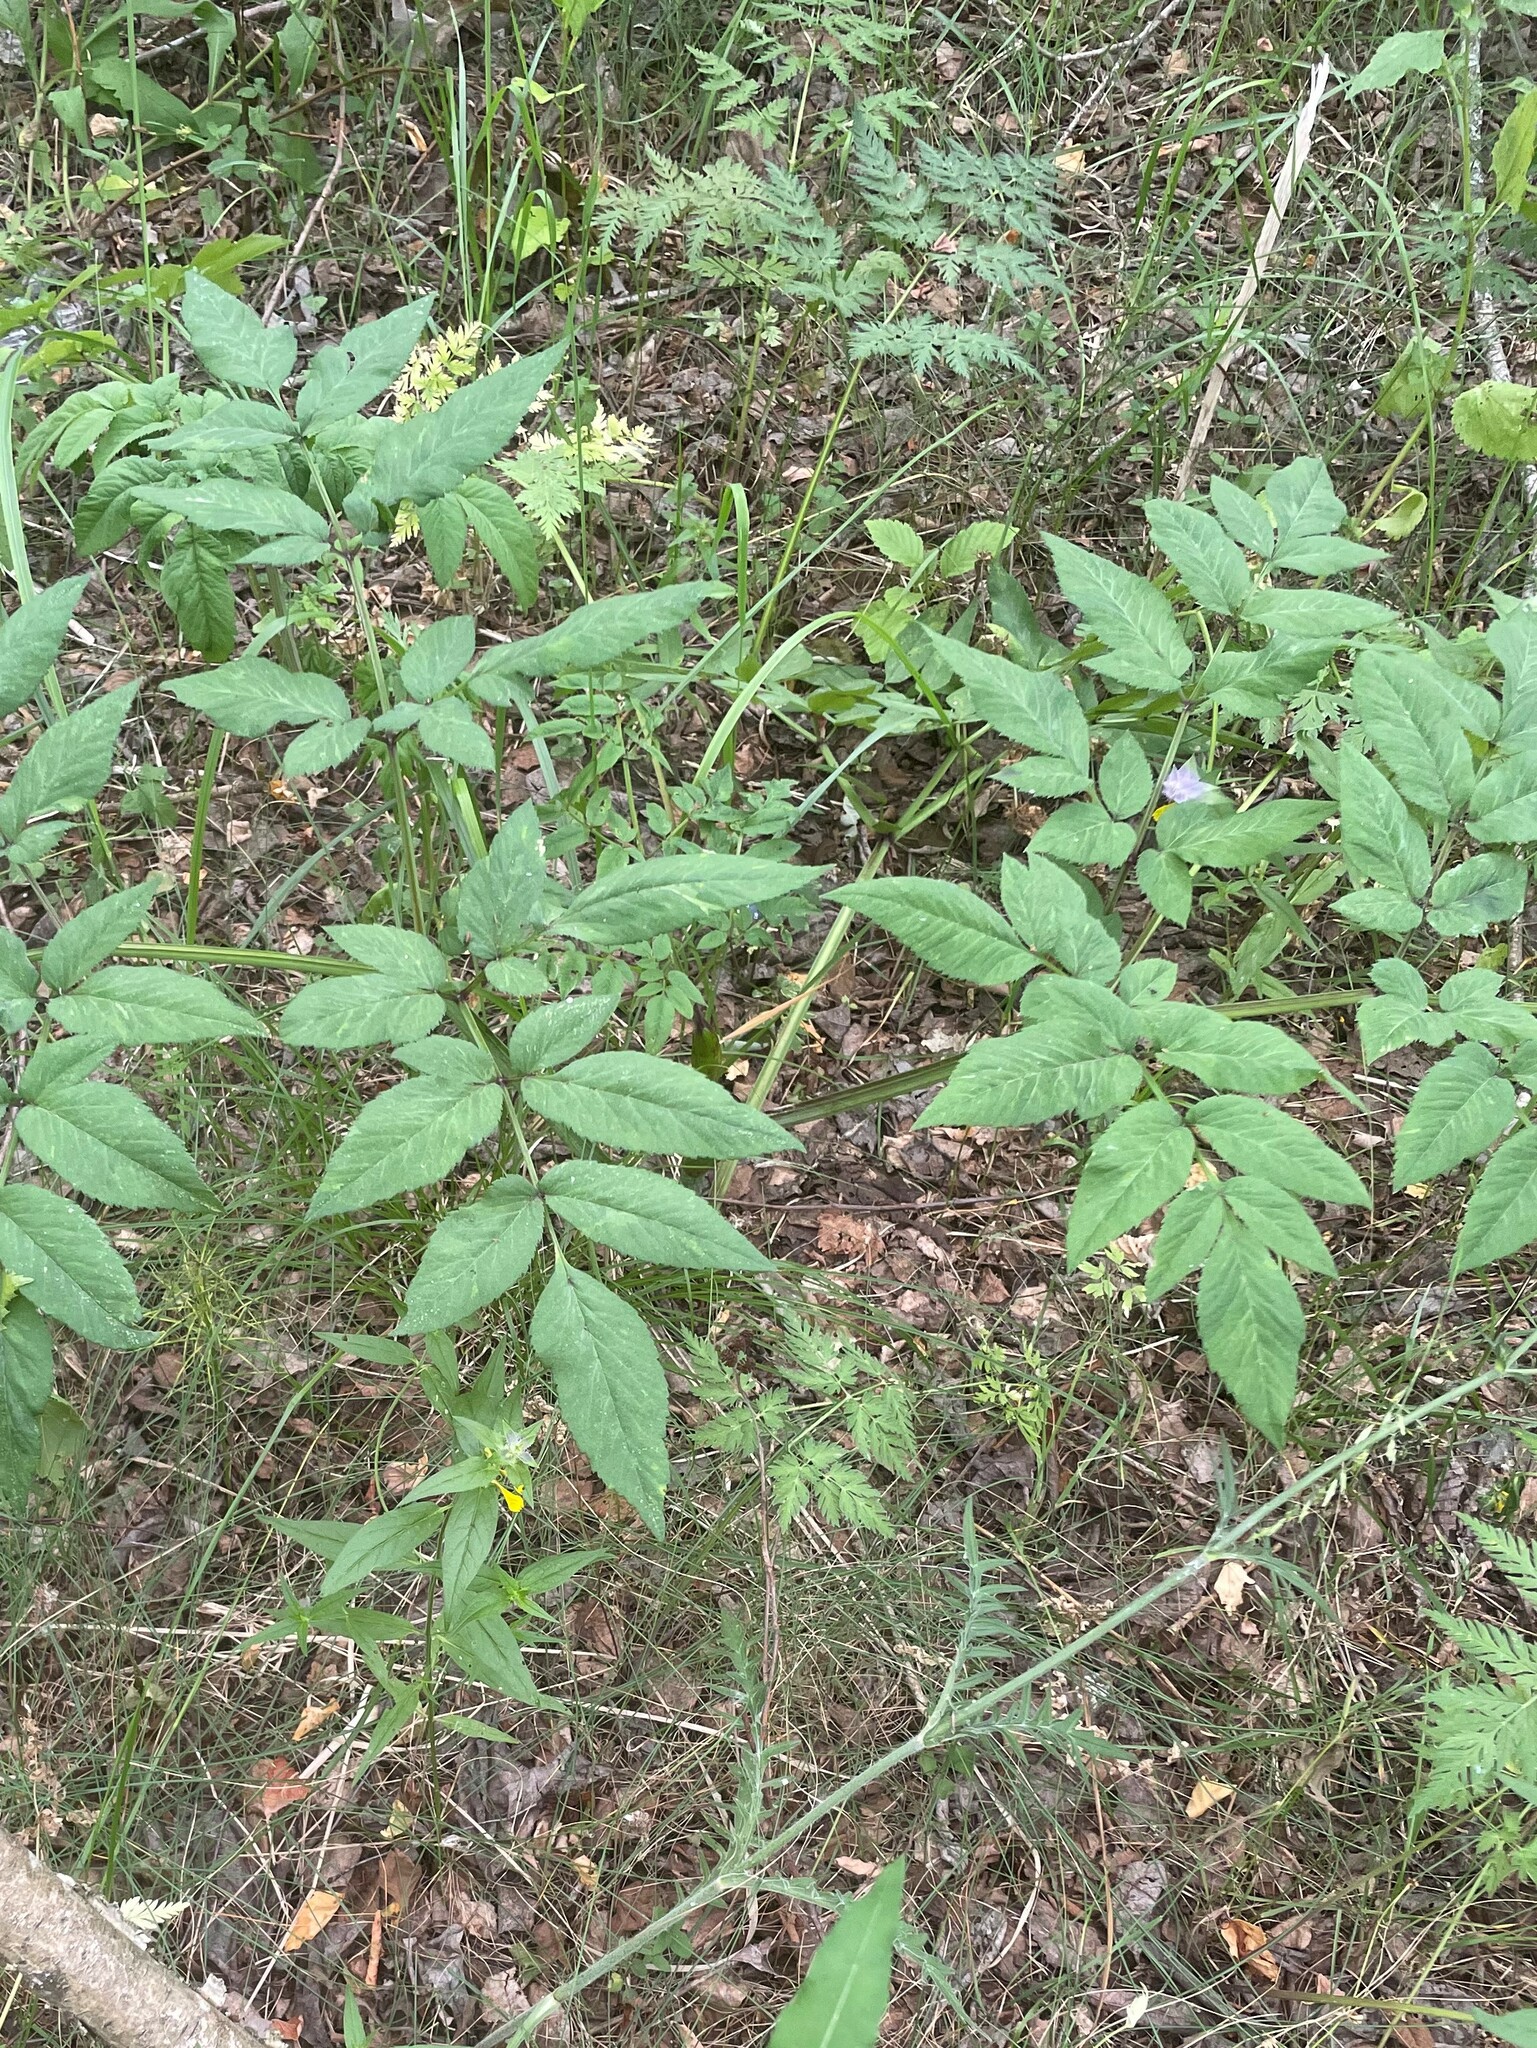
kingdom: Plantae
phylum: Tracheophyta
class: Magnoliopsida
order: Apiales
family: Apiaceae
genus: Angelica
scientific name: Angelica sylvestris
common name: Wild angelica
